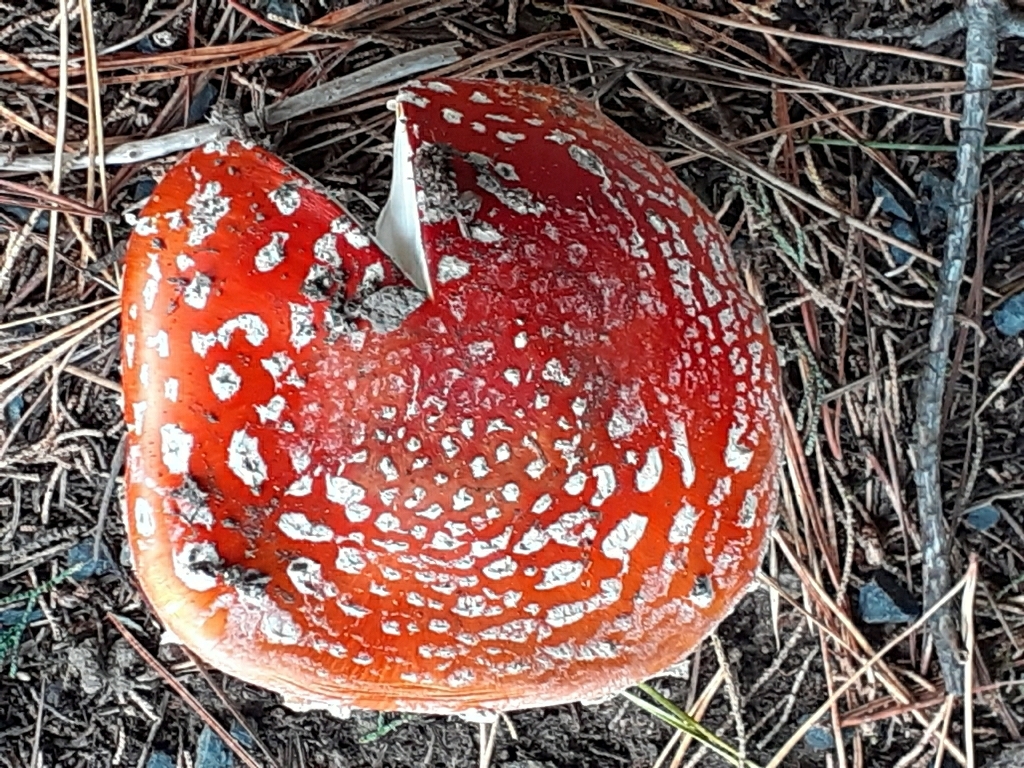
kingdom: Fungi
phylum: Basidiomycota
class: Agaricomycetes
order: Agaricales
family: Amanitaceae
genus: Amanita
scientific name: Amanita muscaria
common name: Fly agaric
